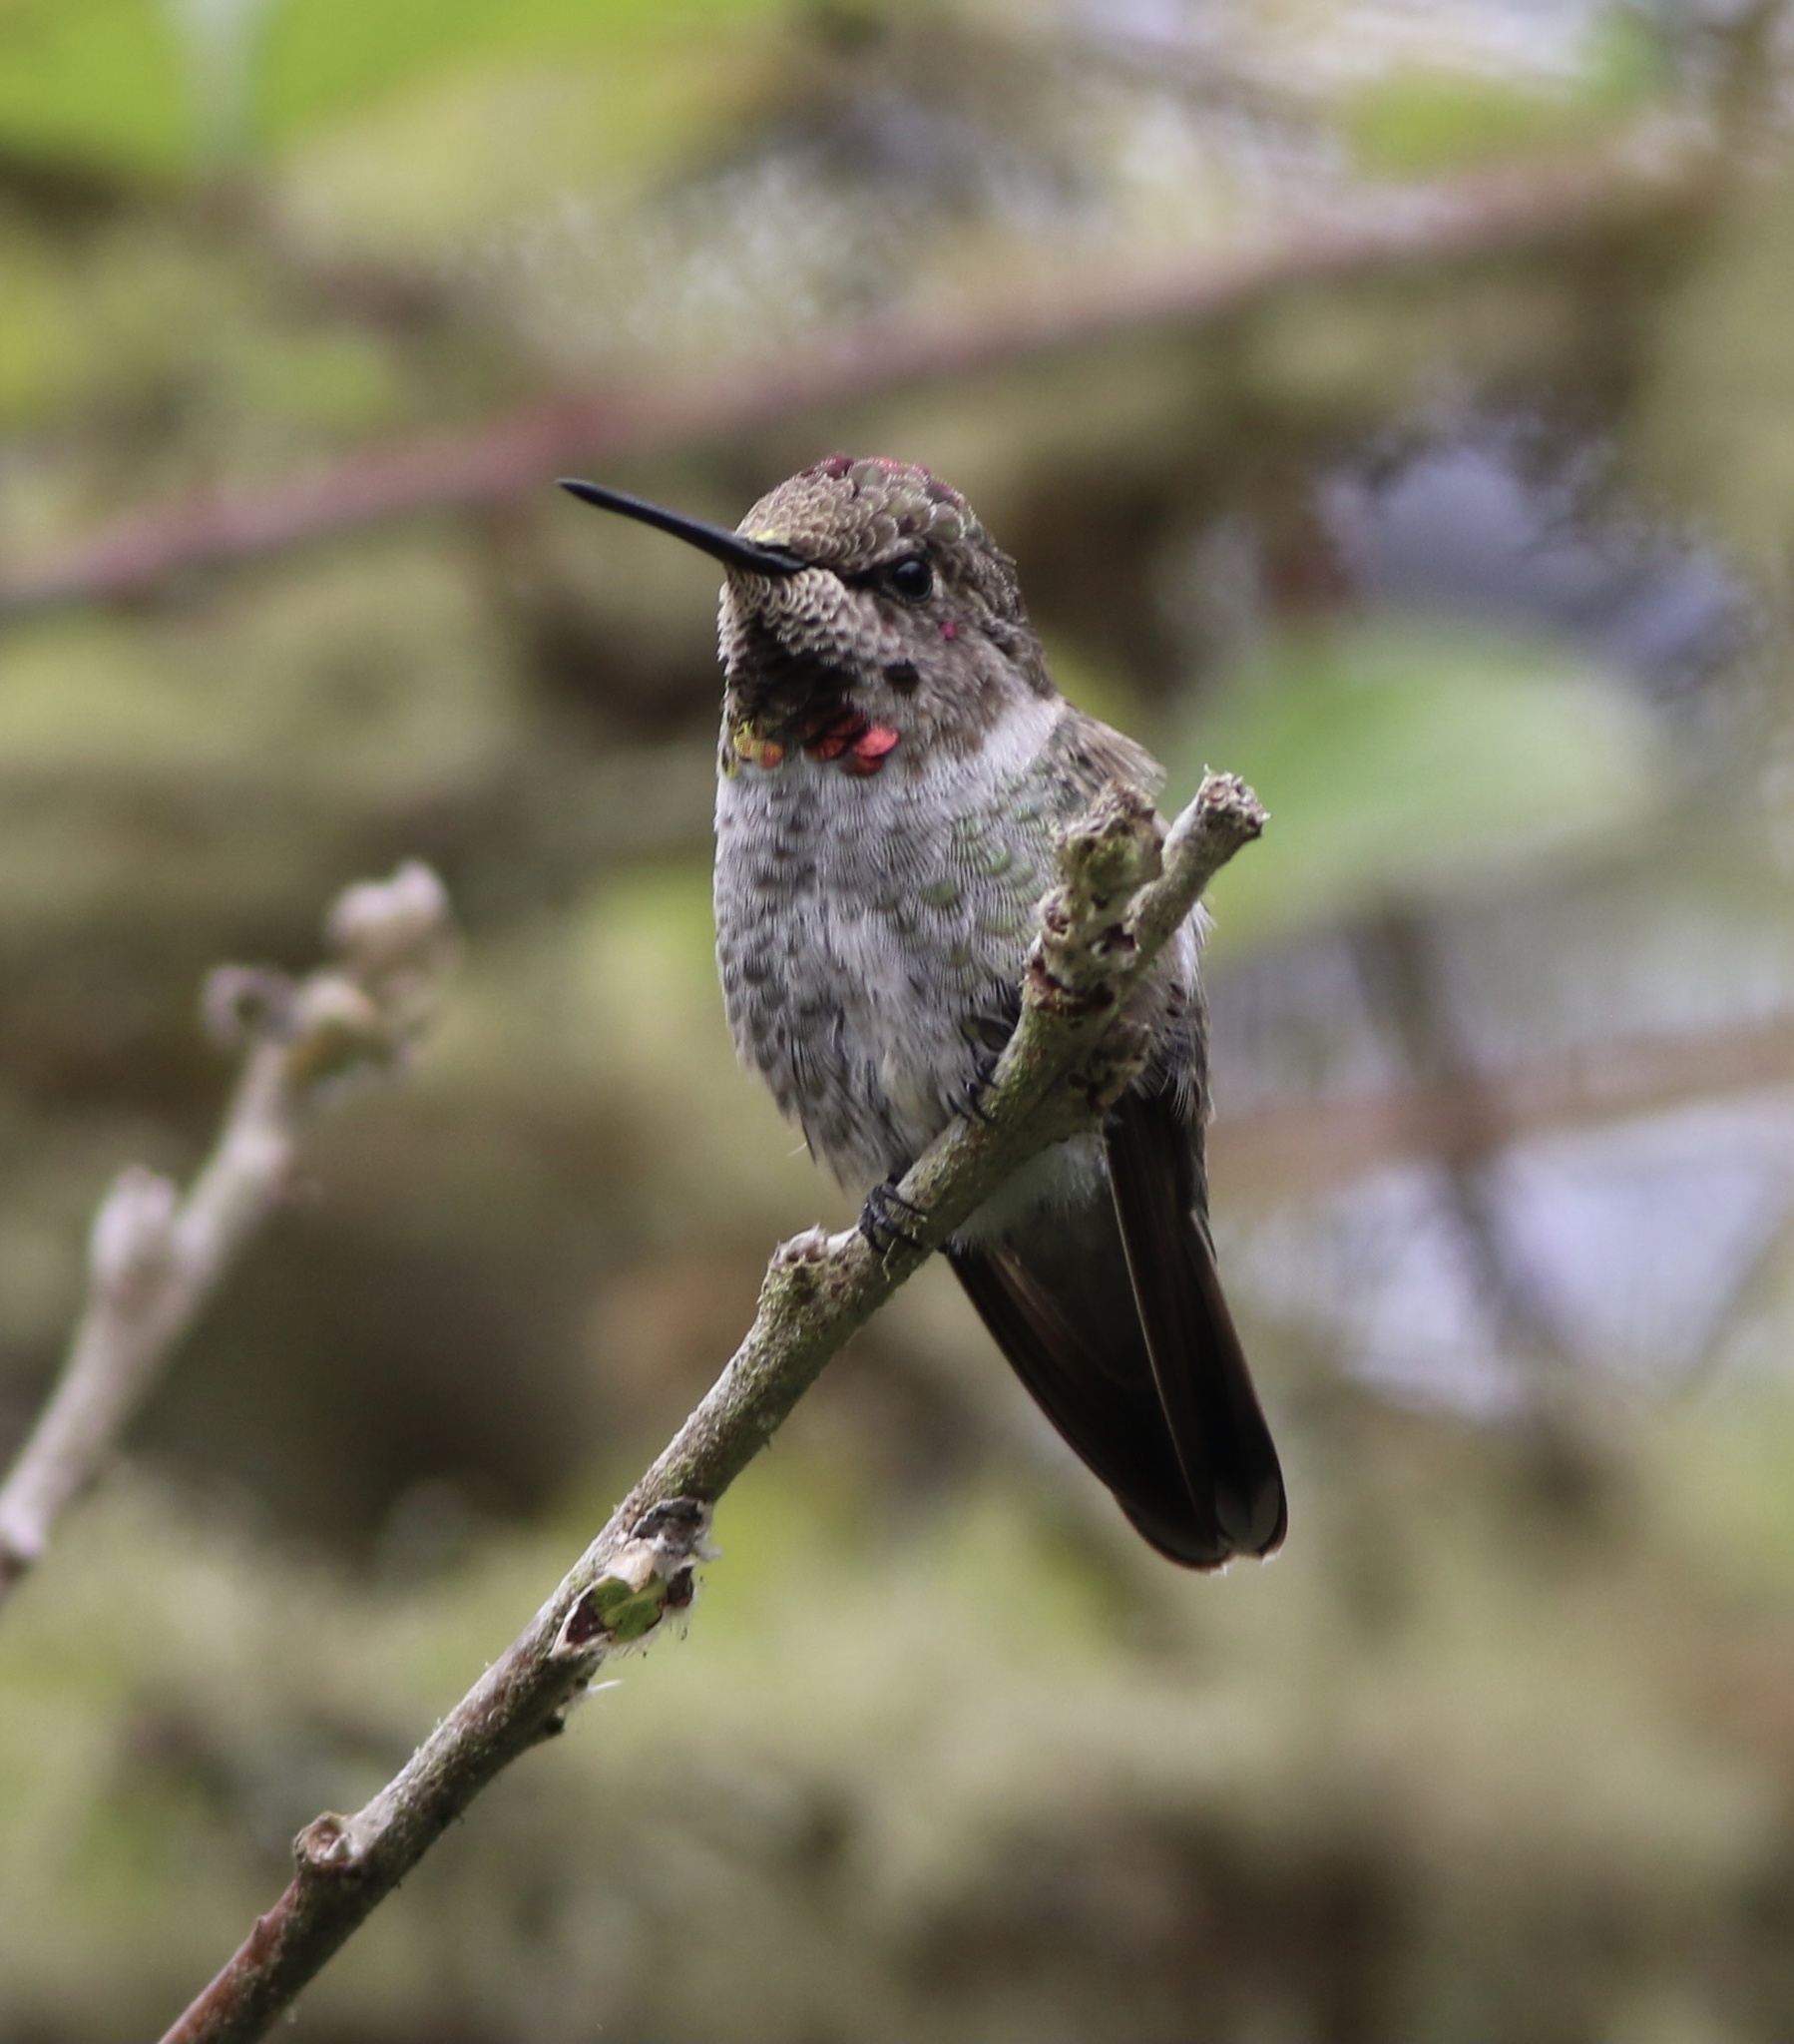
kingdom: Animalia
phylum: Chordata
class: Aves
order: Apodiformes
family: Trochilidae
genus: Calypte
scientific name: Calypte anna
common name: Anna's hummingbird
